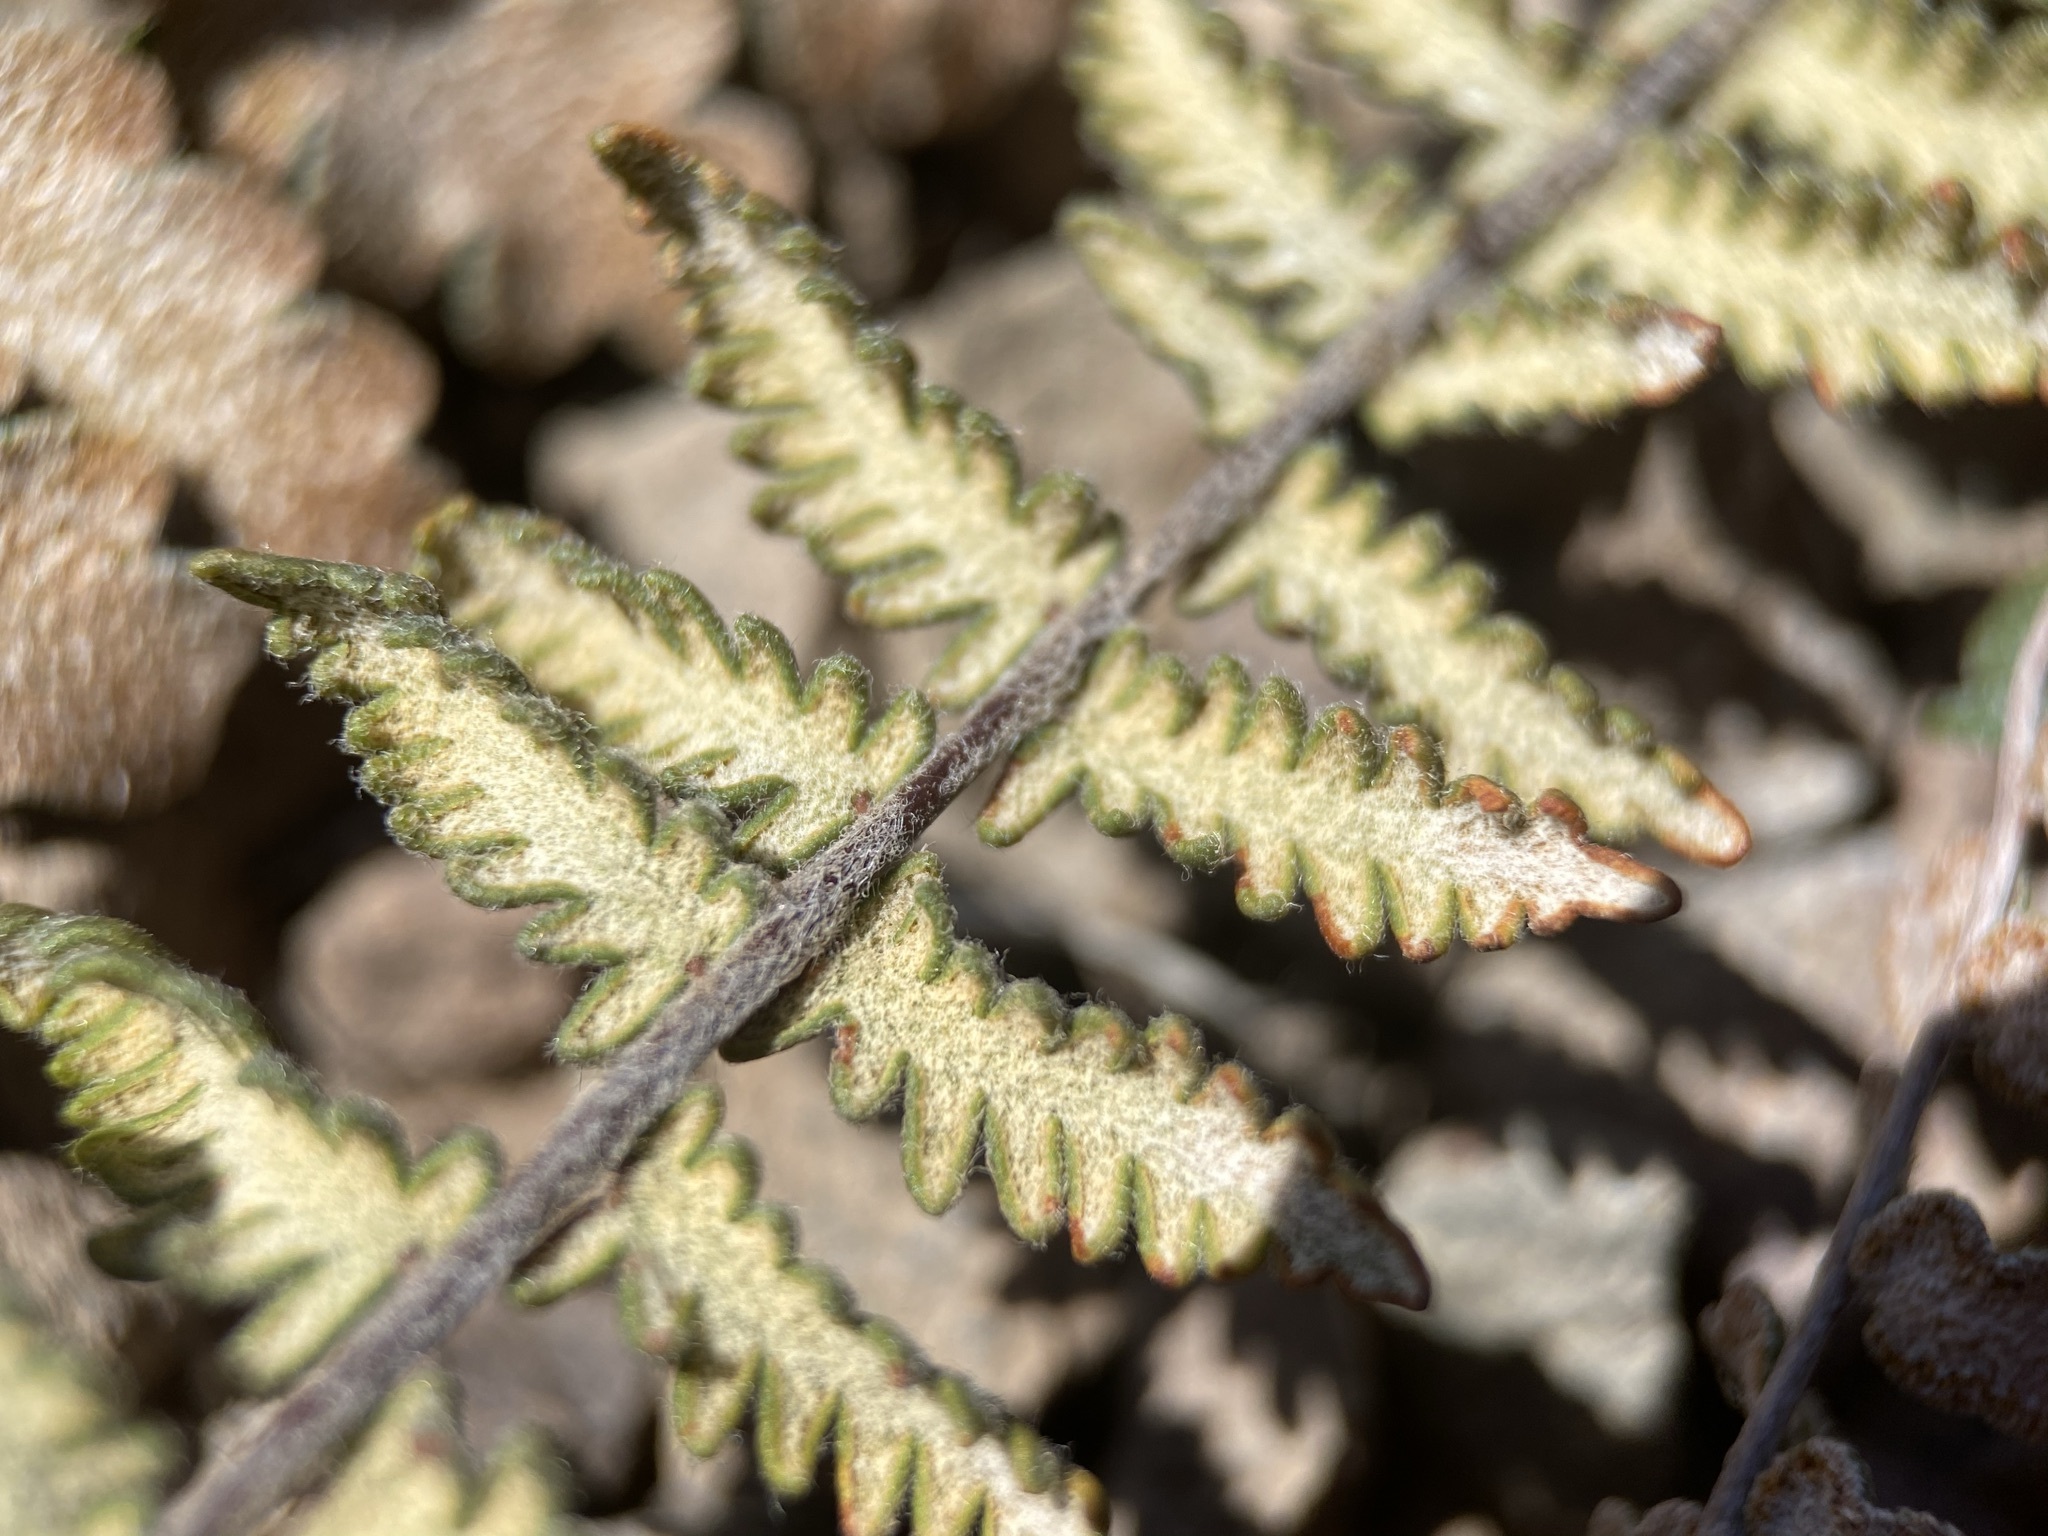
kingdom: Plantae
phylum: Tracheophyta
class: Polypodiopsida
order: Polypodiales
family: Pteridaceae
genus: Myriopteris
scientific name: Myriopteris aurea
